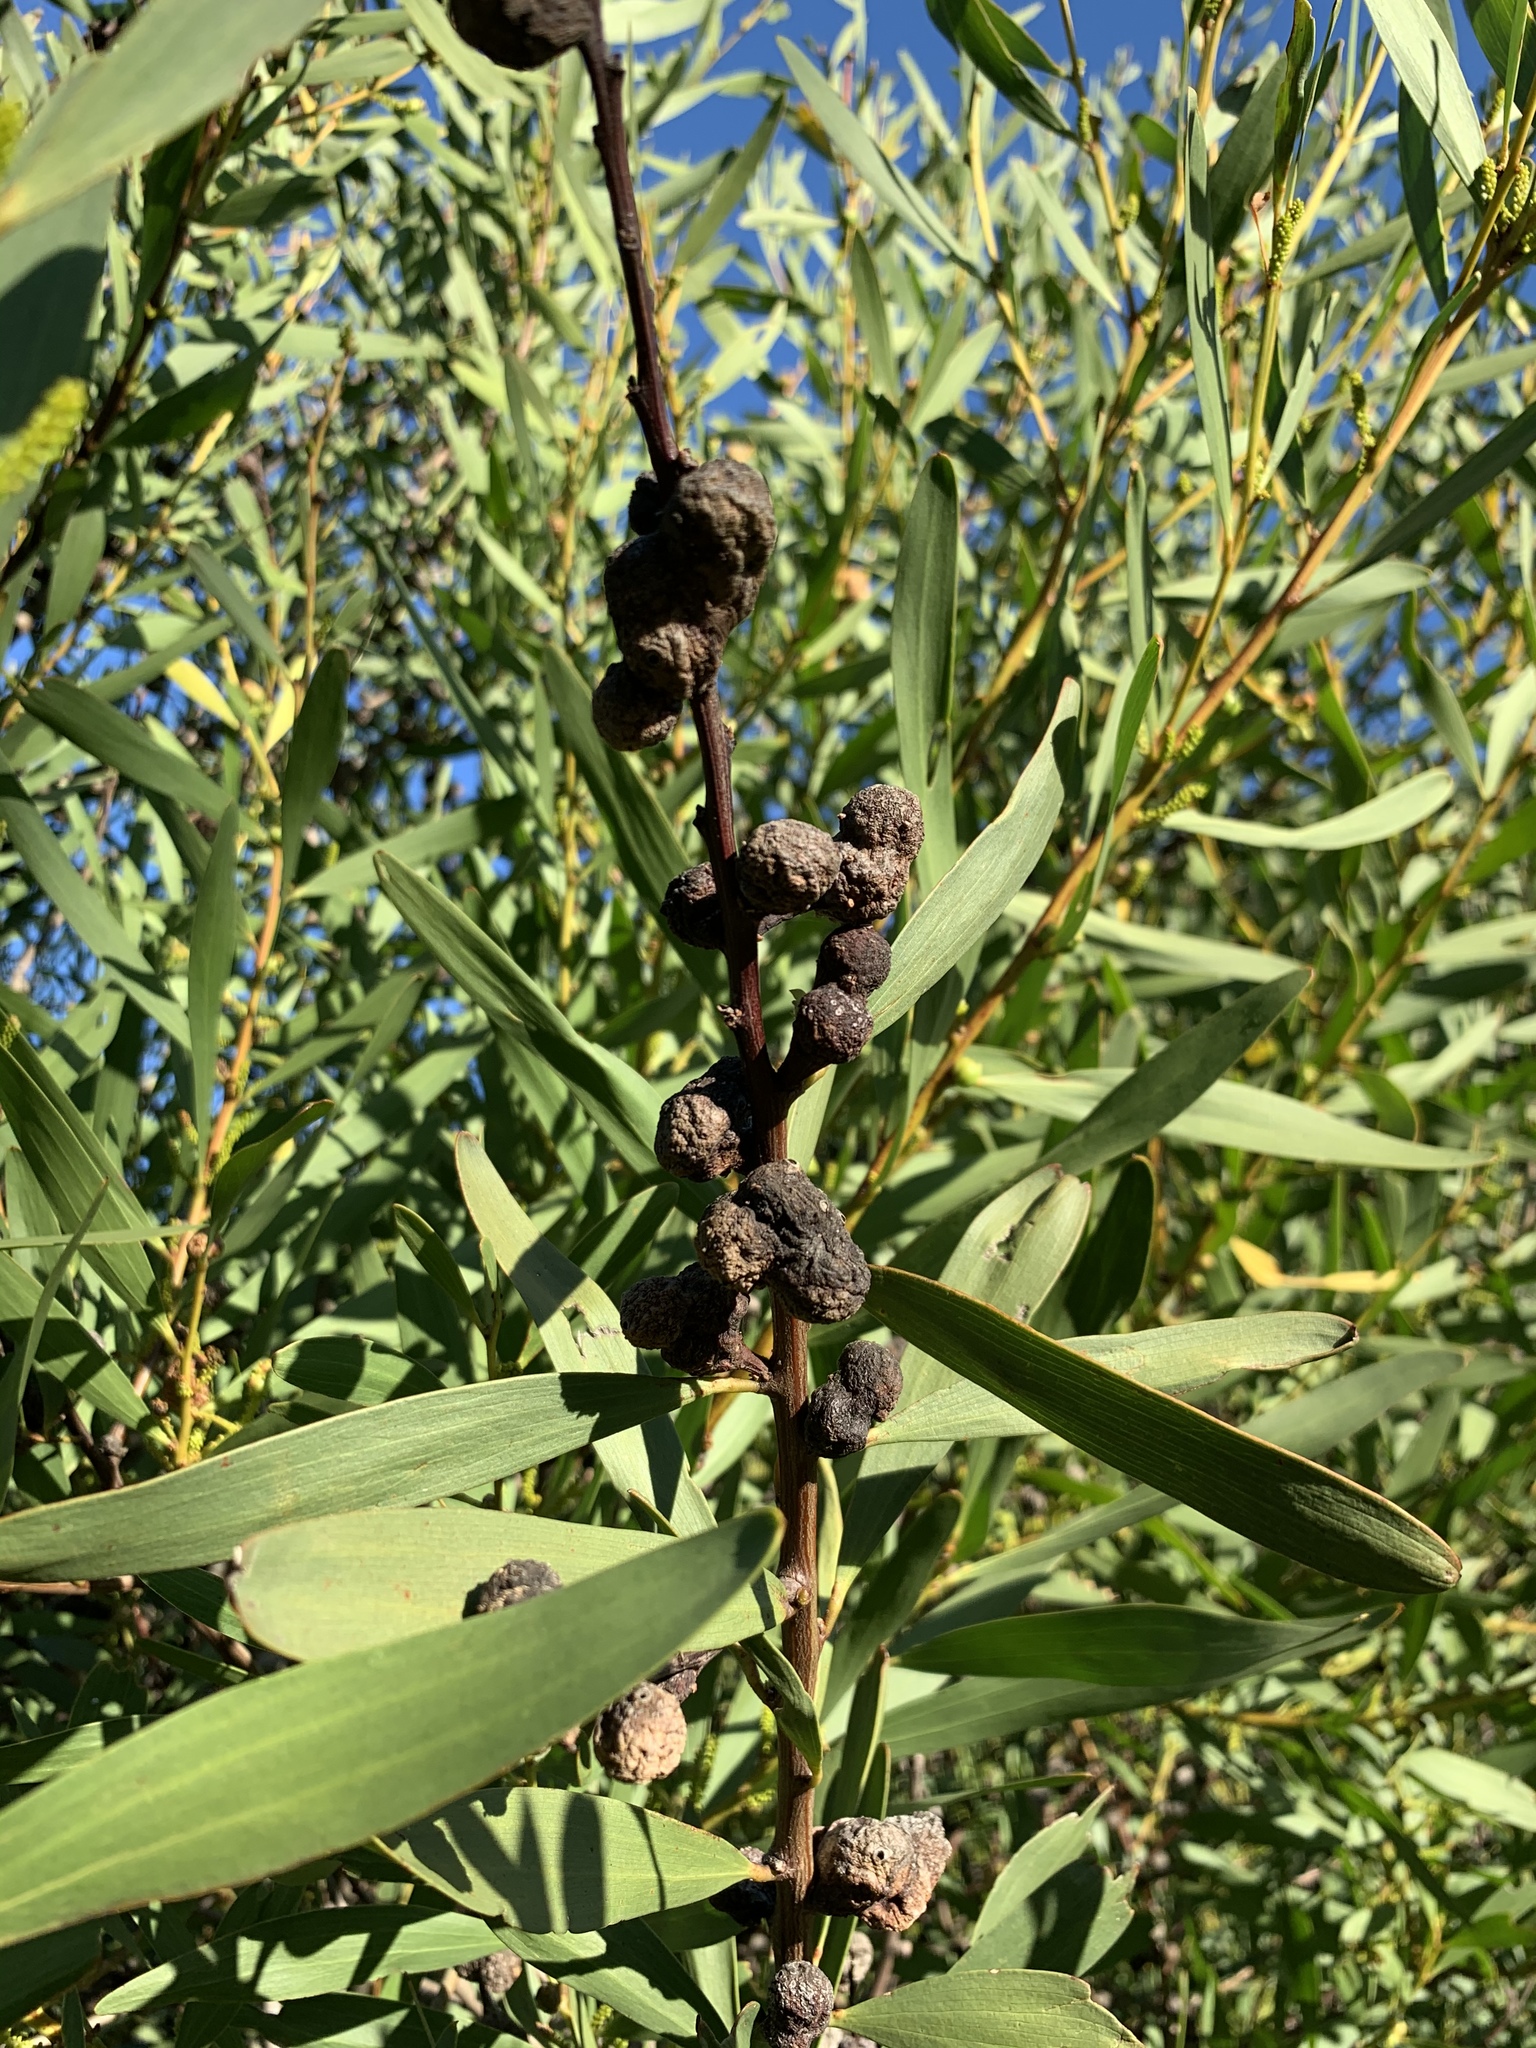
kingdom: Animalia
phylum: Arthropoda
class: Insecta
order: Hymenoptera
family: Pteromalidae
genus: Trichilogaster
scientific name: Trichilogaster acaciaelongifoliae
